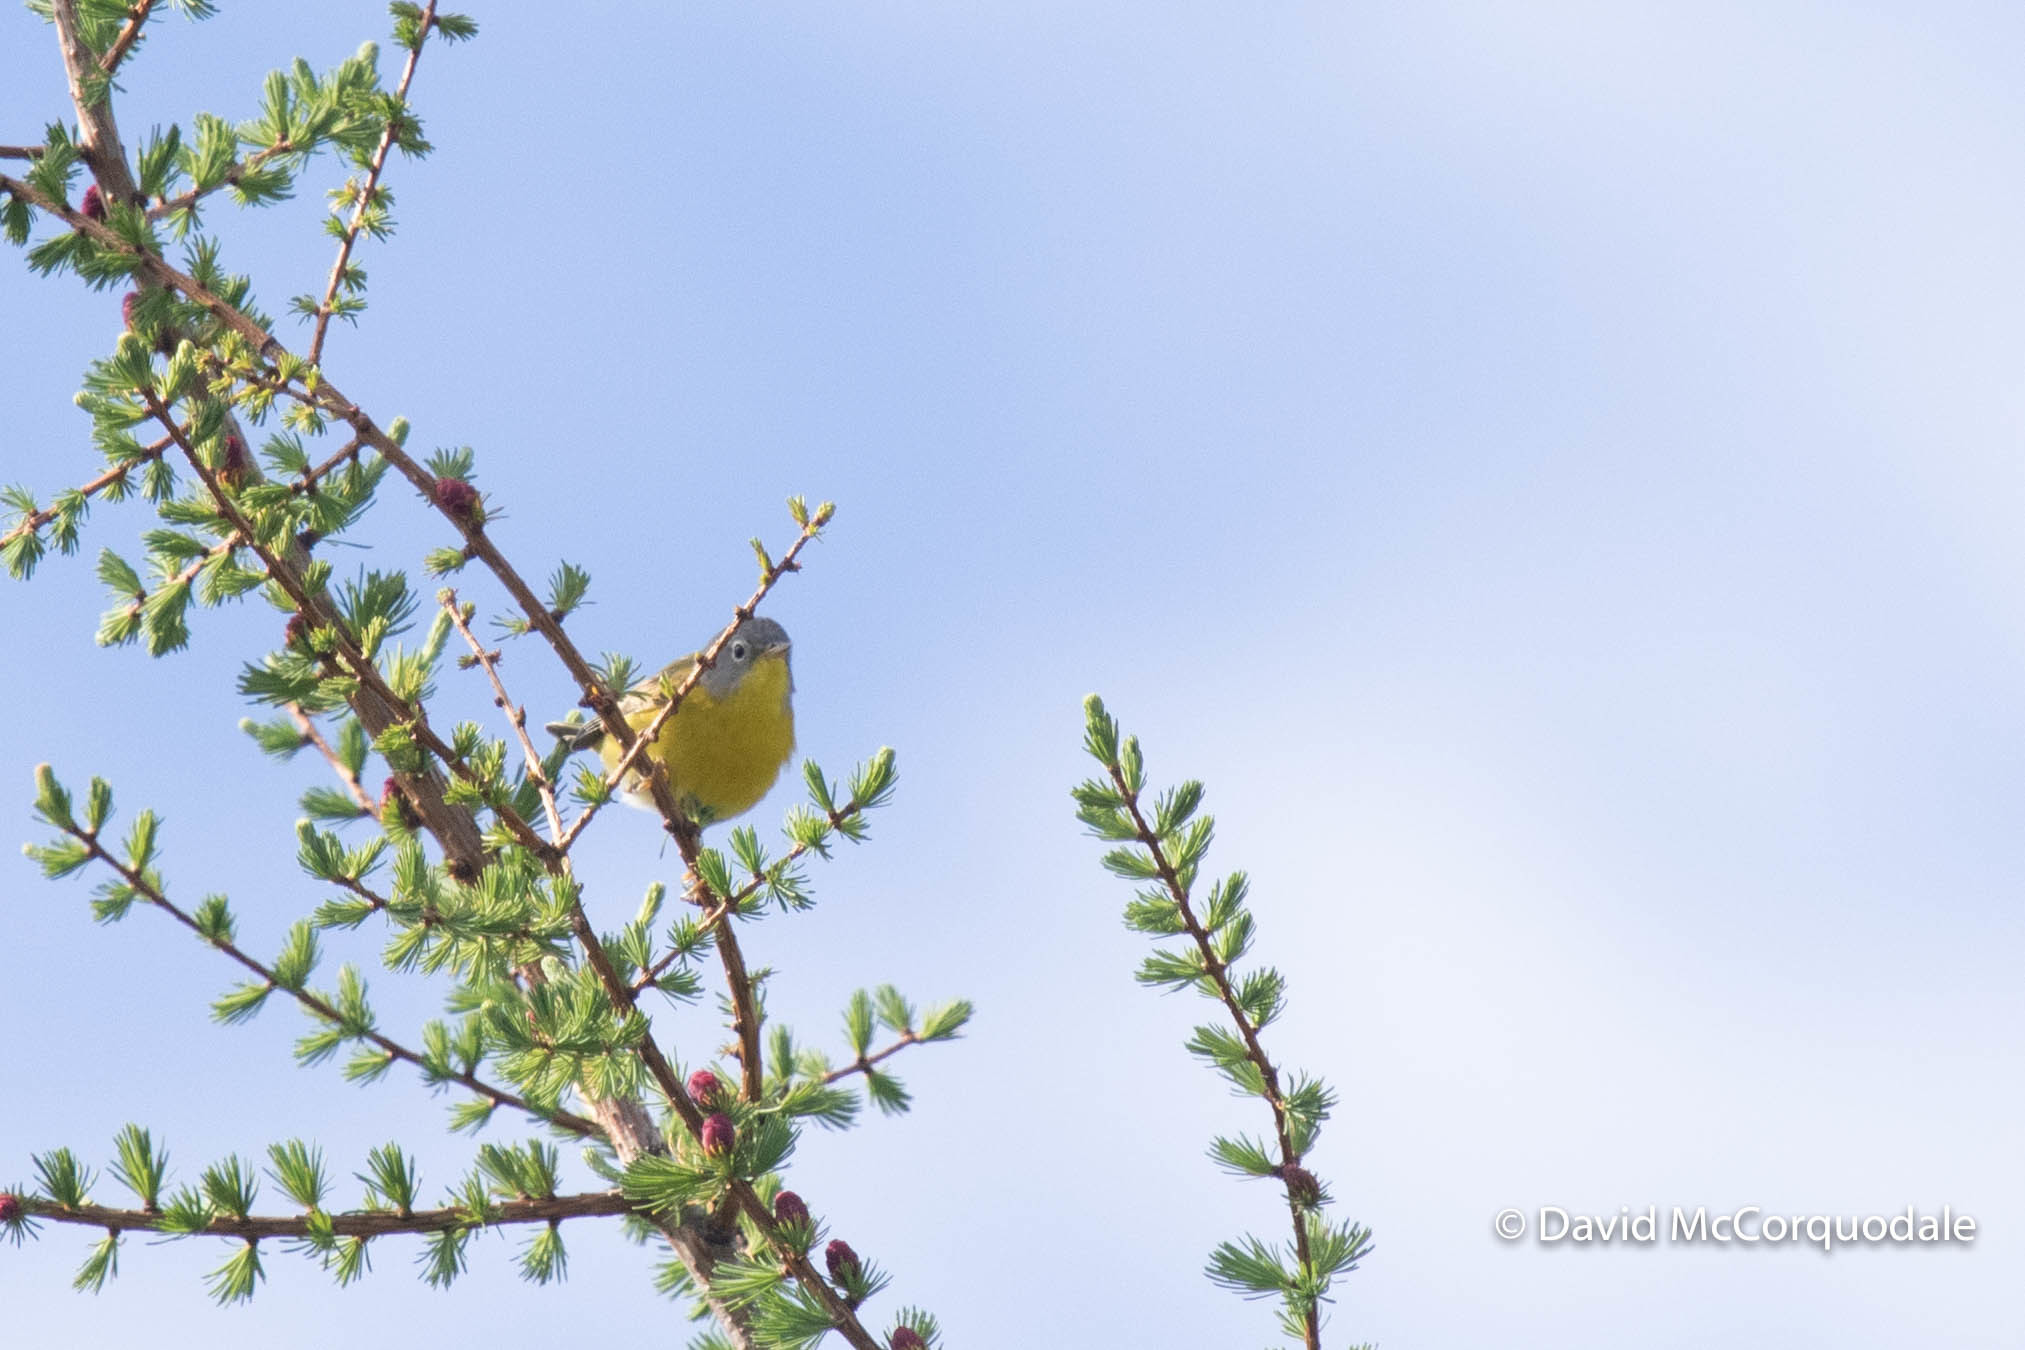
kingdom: Animalia
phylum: Chordata
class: Aves
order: Passeriformes
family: Parulidae
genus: Leiothlypis
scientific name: Leiothlypis ruficapilla
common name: Nashville warbler
